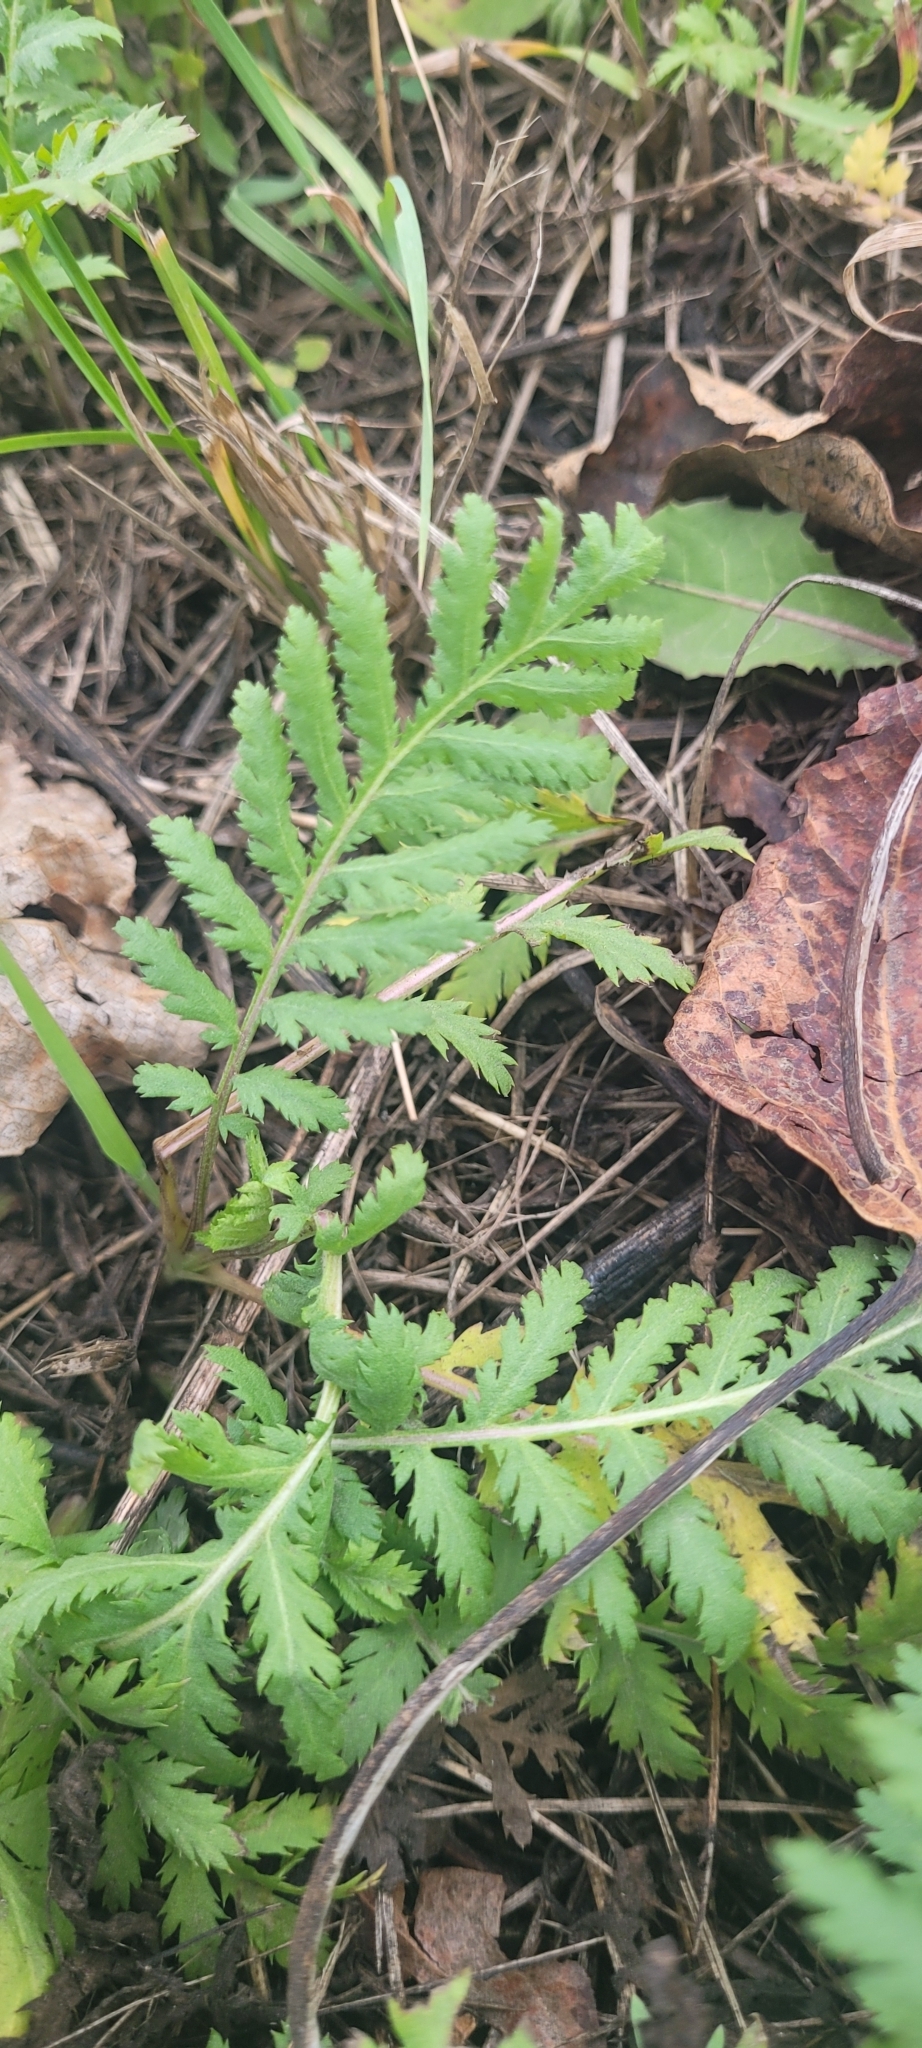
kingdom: Plantae
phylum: Tracheophyta
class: Magnoliopsida
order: Asterales
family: Asteraceae
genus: Tanacetum
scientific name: Tanacetum vulgare
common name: Common tansy
